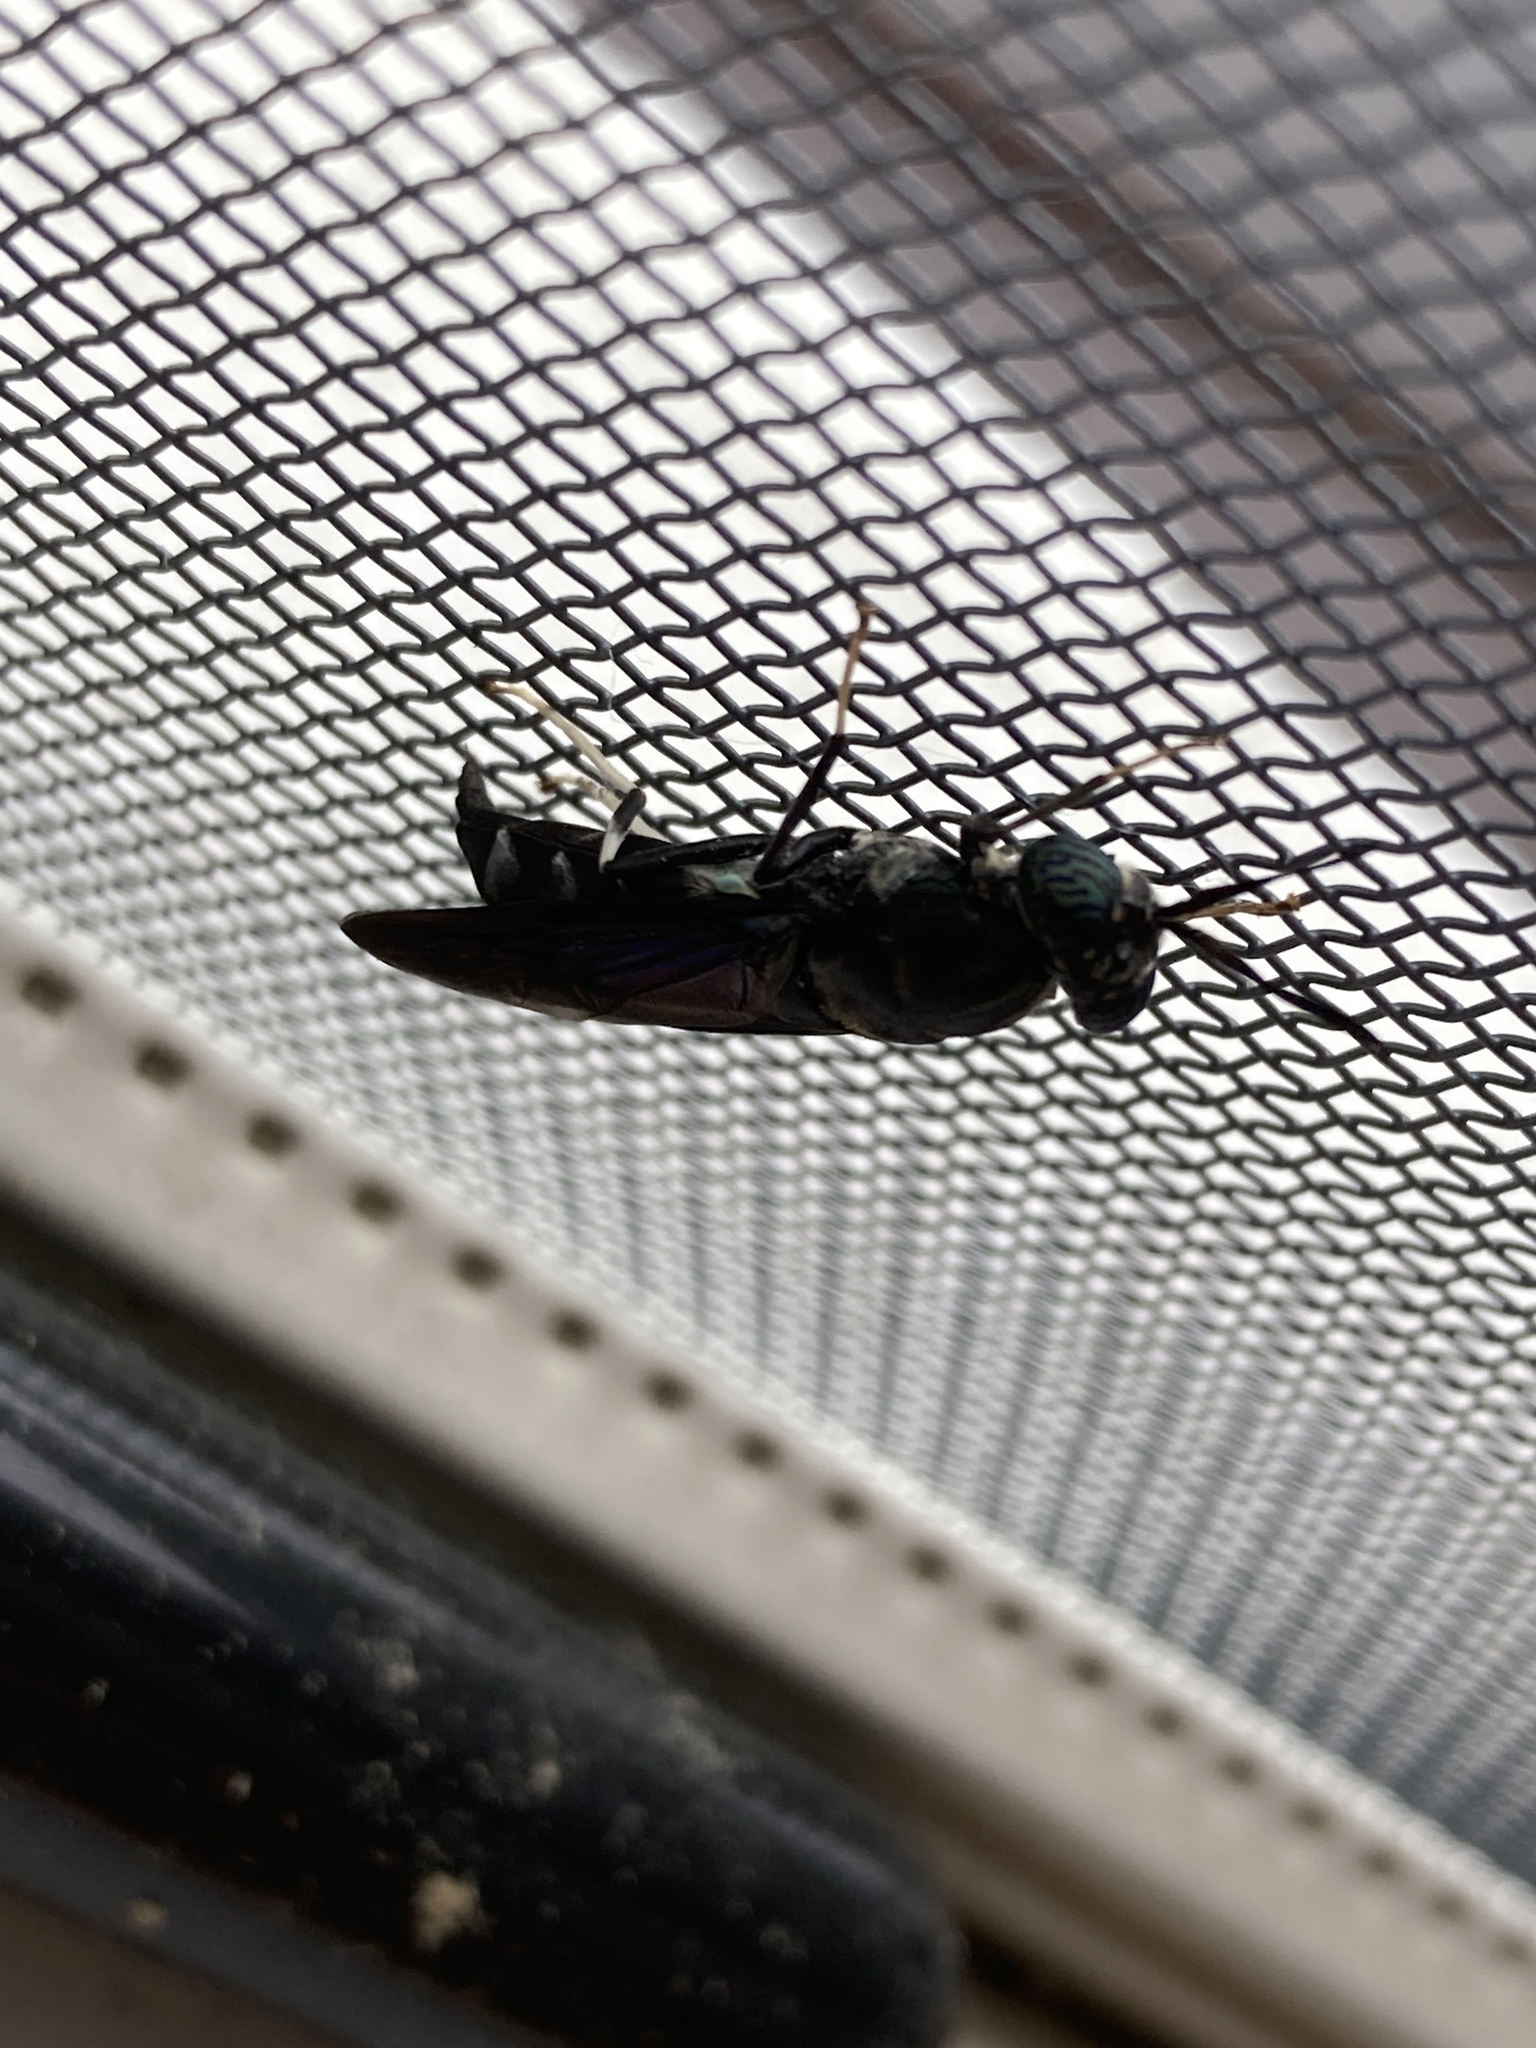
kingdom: Animalia
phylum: Arthropoda
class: Insecta
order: Diptera
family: Stratiomyidae
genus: Hermetia
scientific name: Hermetia illucens
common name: Black soldier fly
